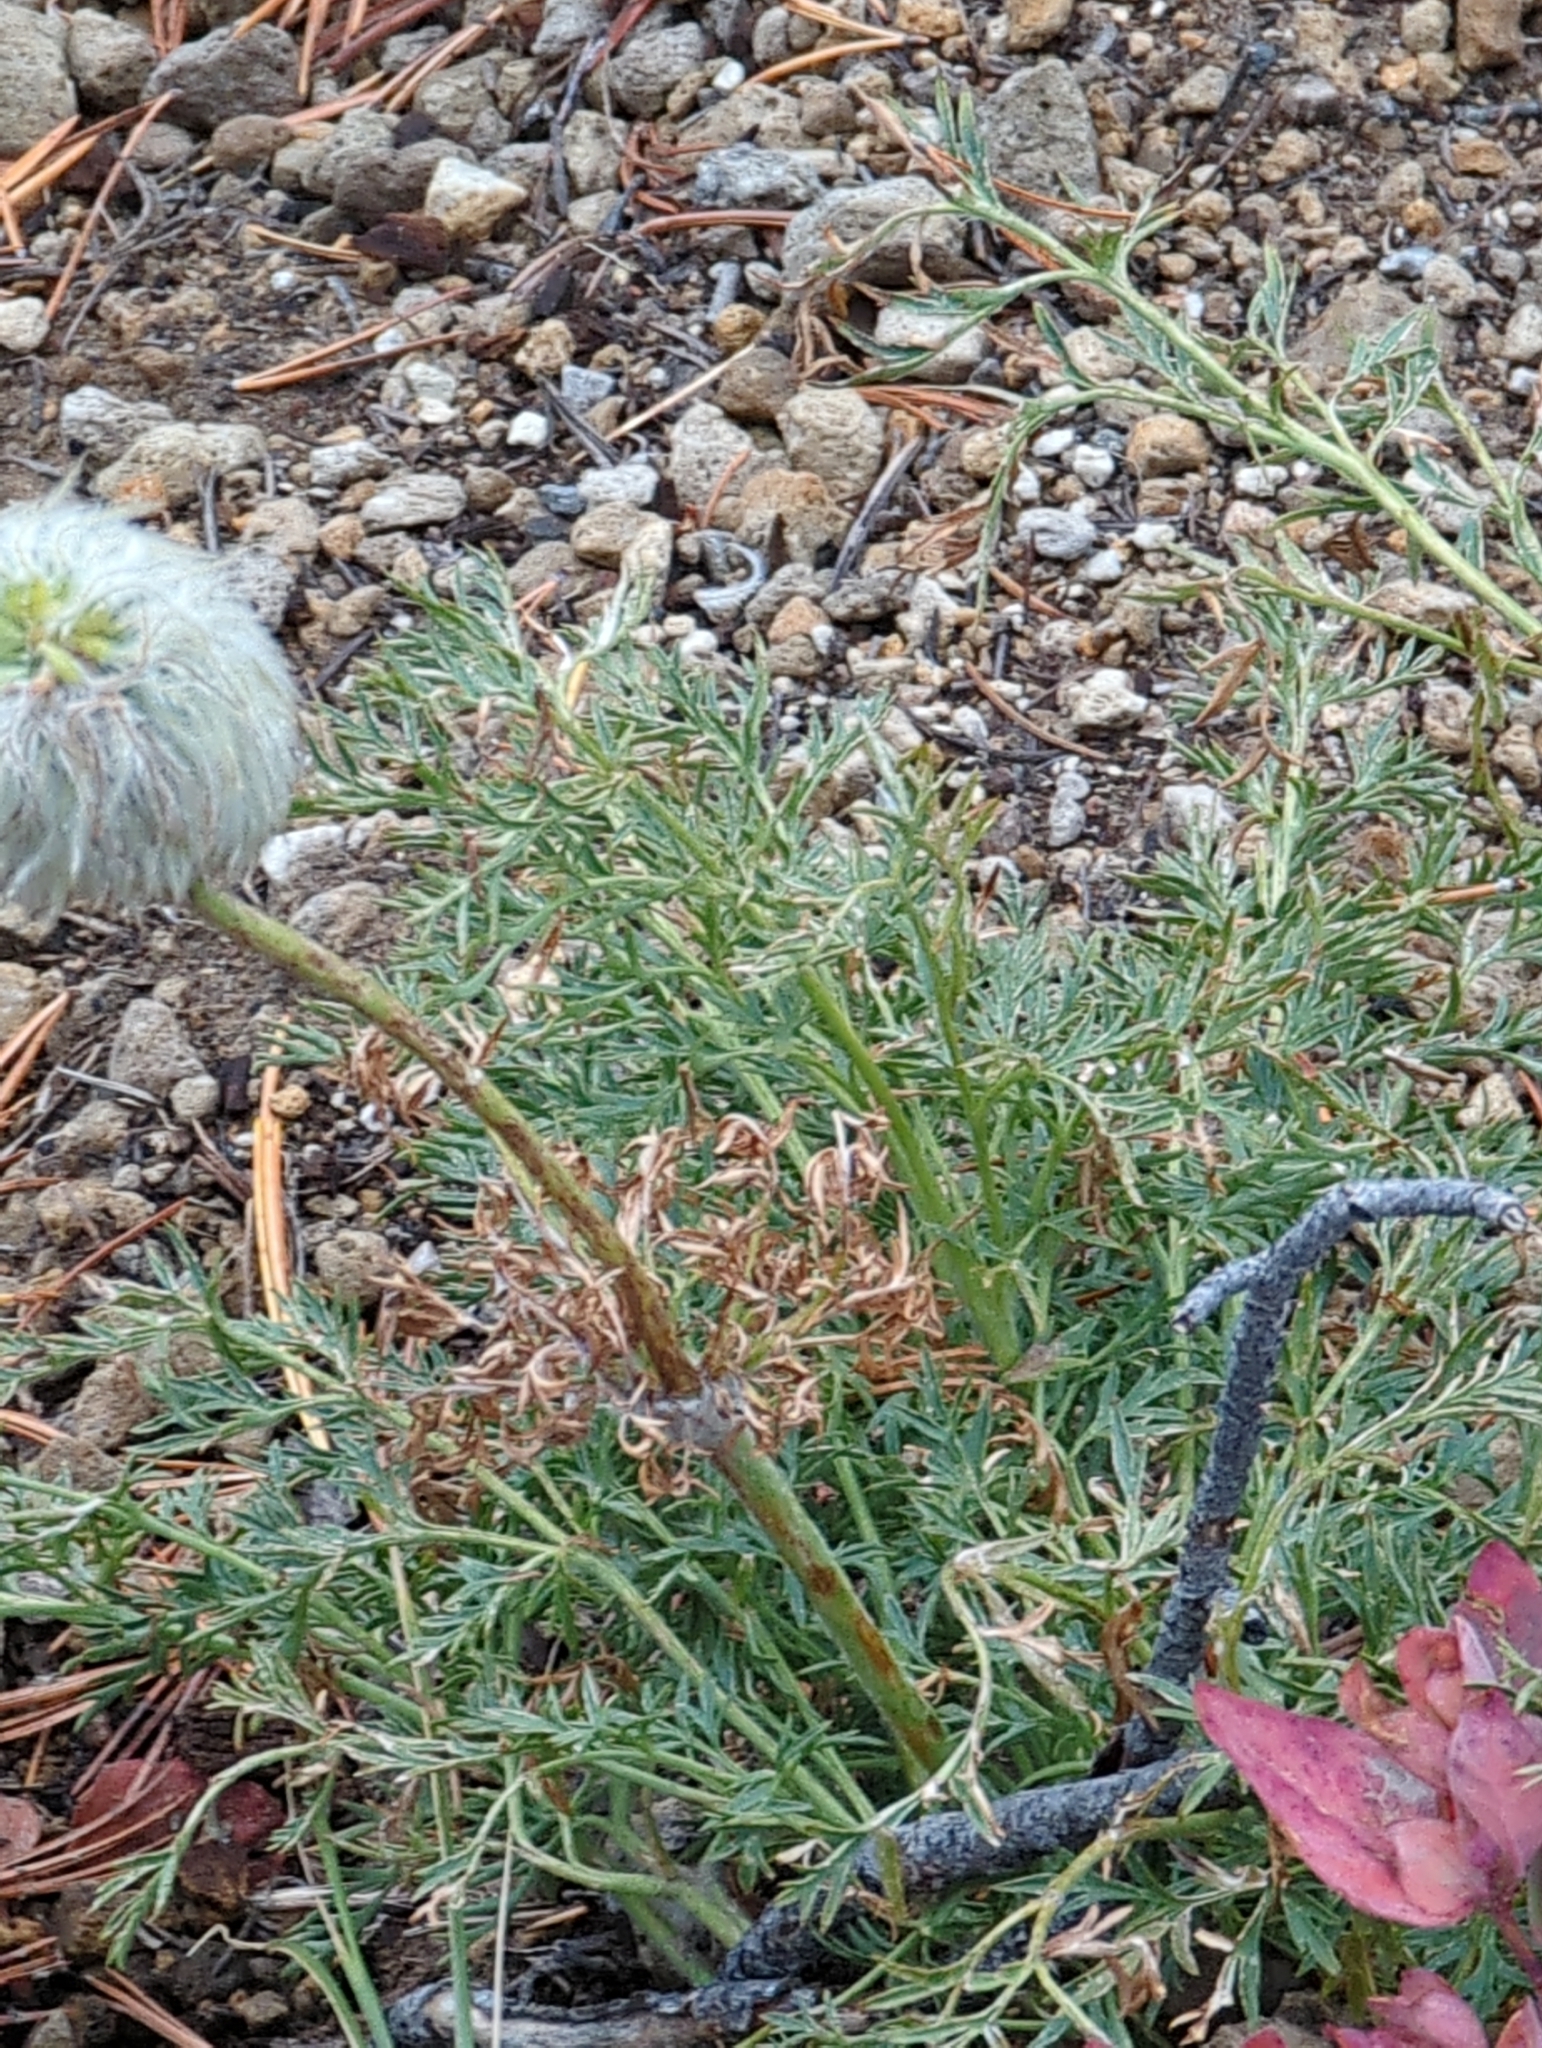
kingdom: Plantae
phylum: Tracheophyta
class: Magnoliopsida
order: Ranunculales
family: Ranunculaceae
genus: Pulsatilla
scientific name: Pulsatilla occidentalis
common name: Mountain pasqueflower
